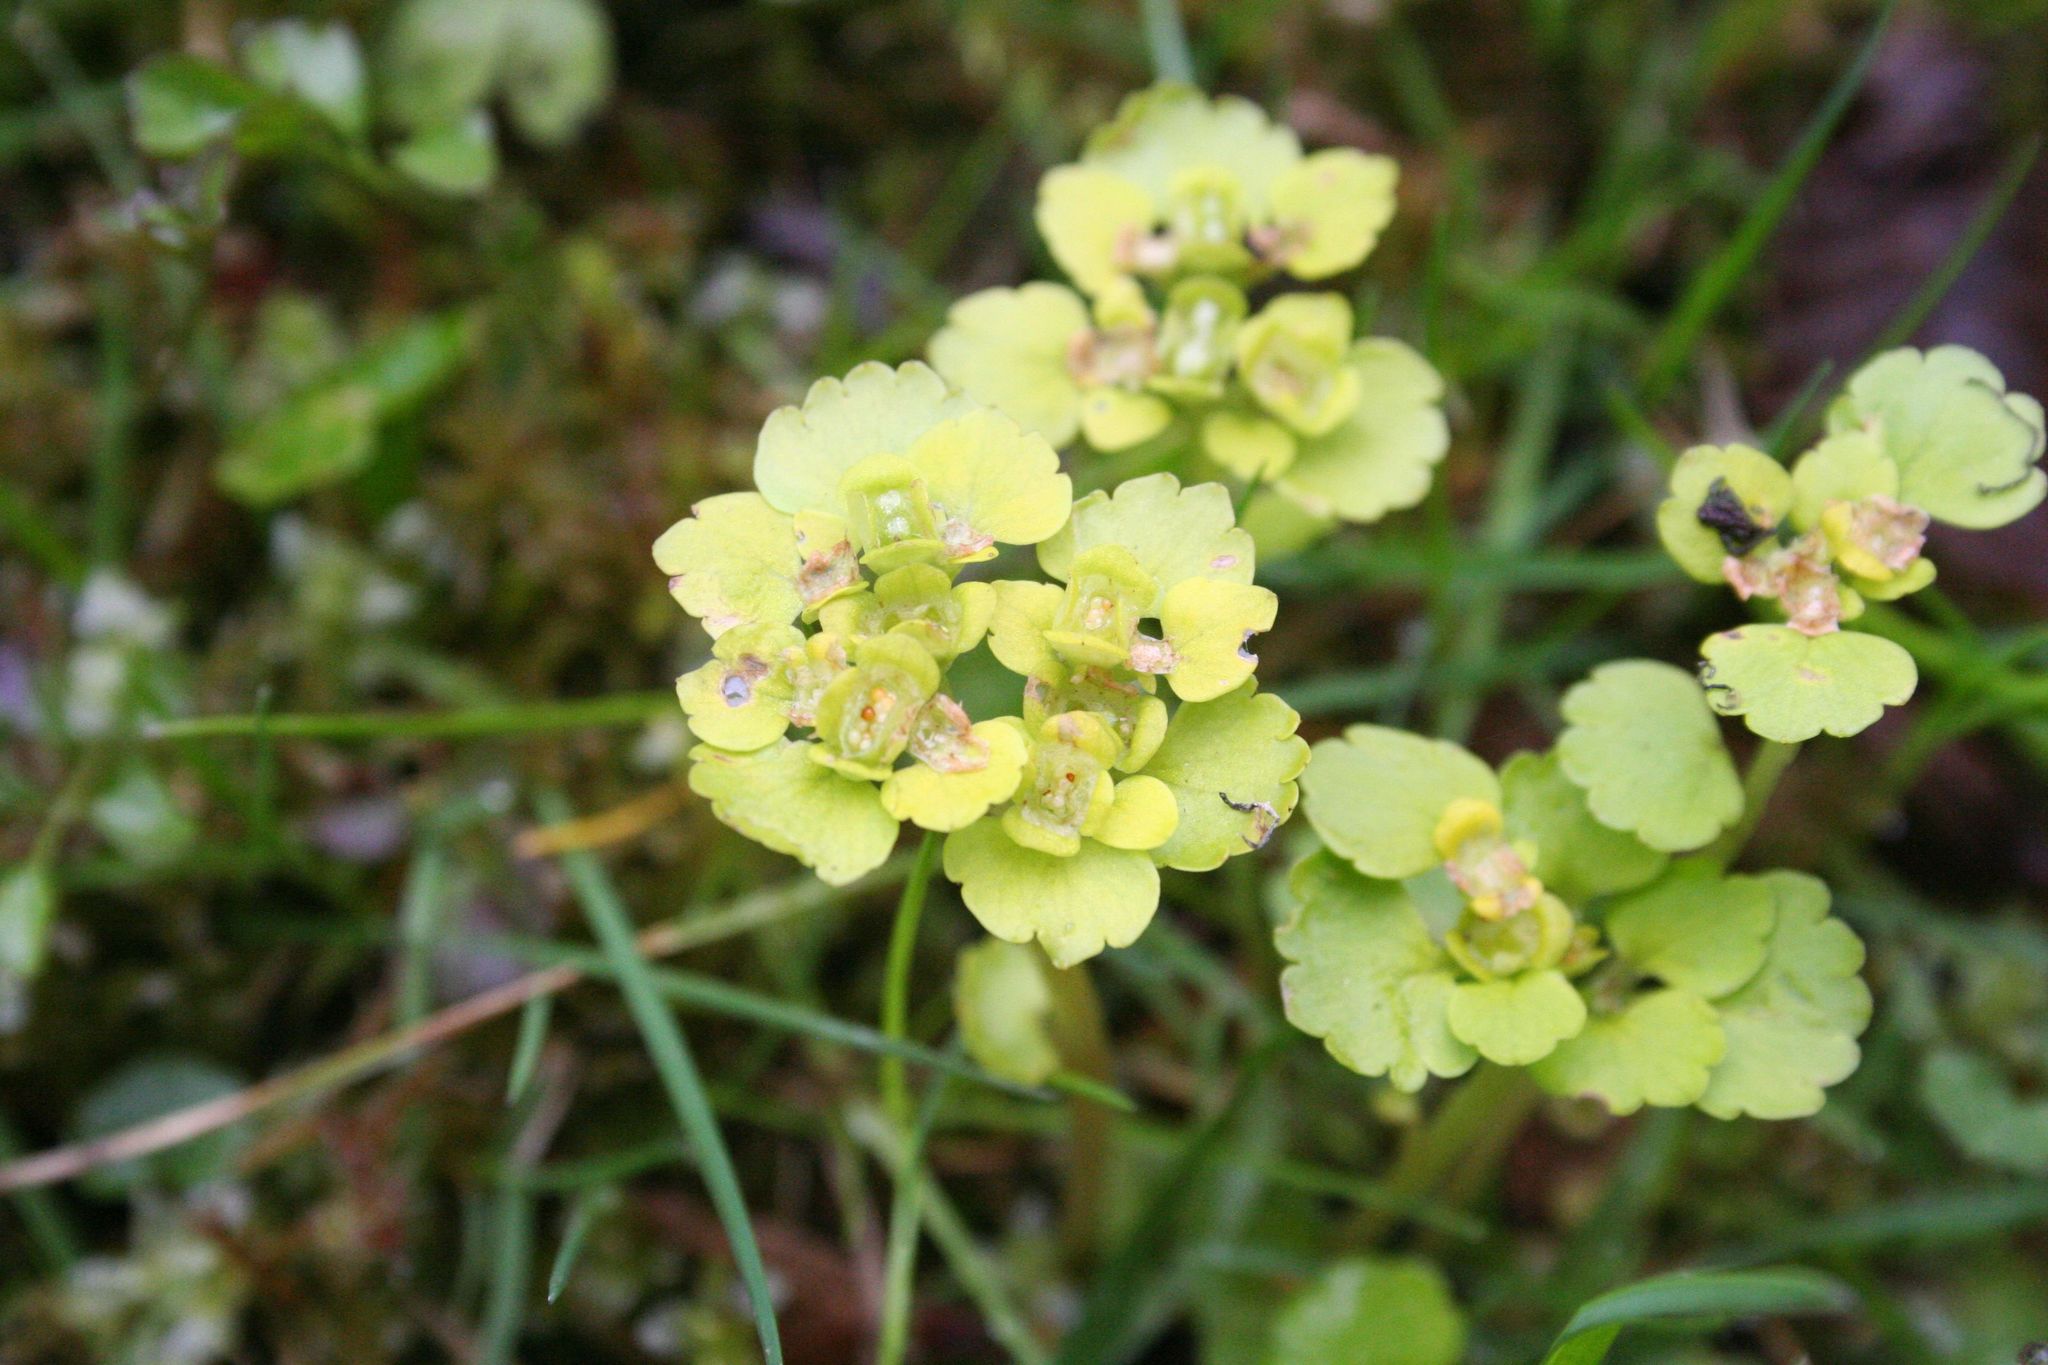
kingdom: Plantae
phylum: Tracheophyta
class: Magnoliopsida
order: Saxifragales
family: Saxifragaceae
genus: Chrysosplenium
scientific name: Chrysosplenium alternifolium
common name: Alternate-leaved golden-saxifrage
